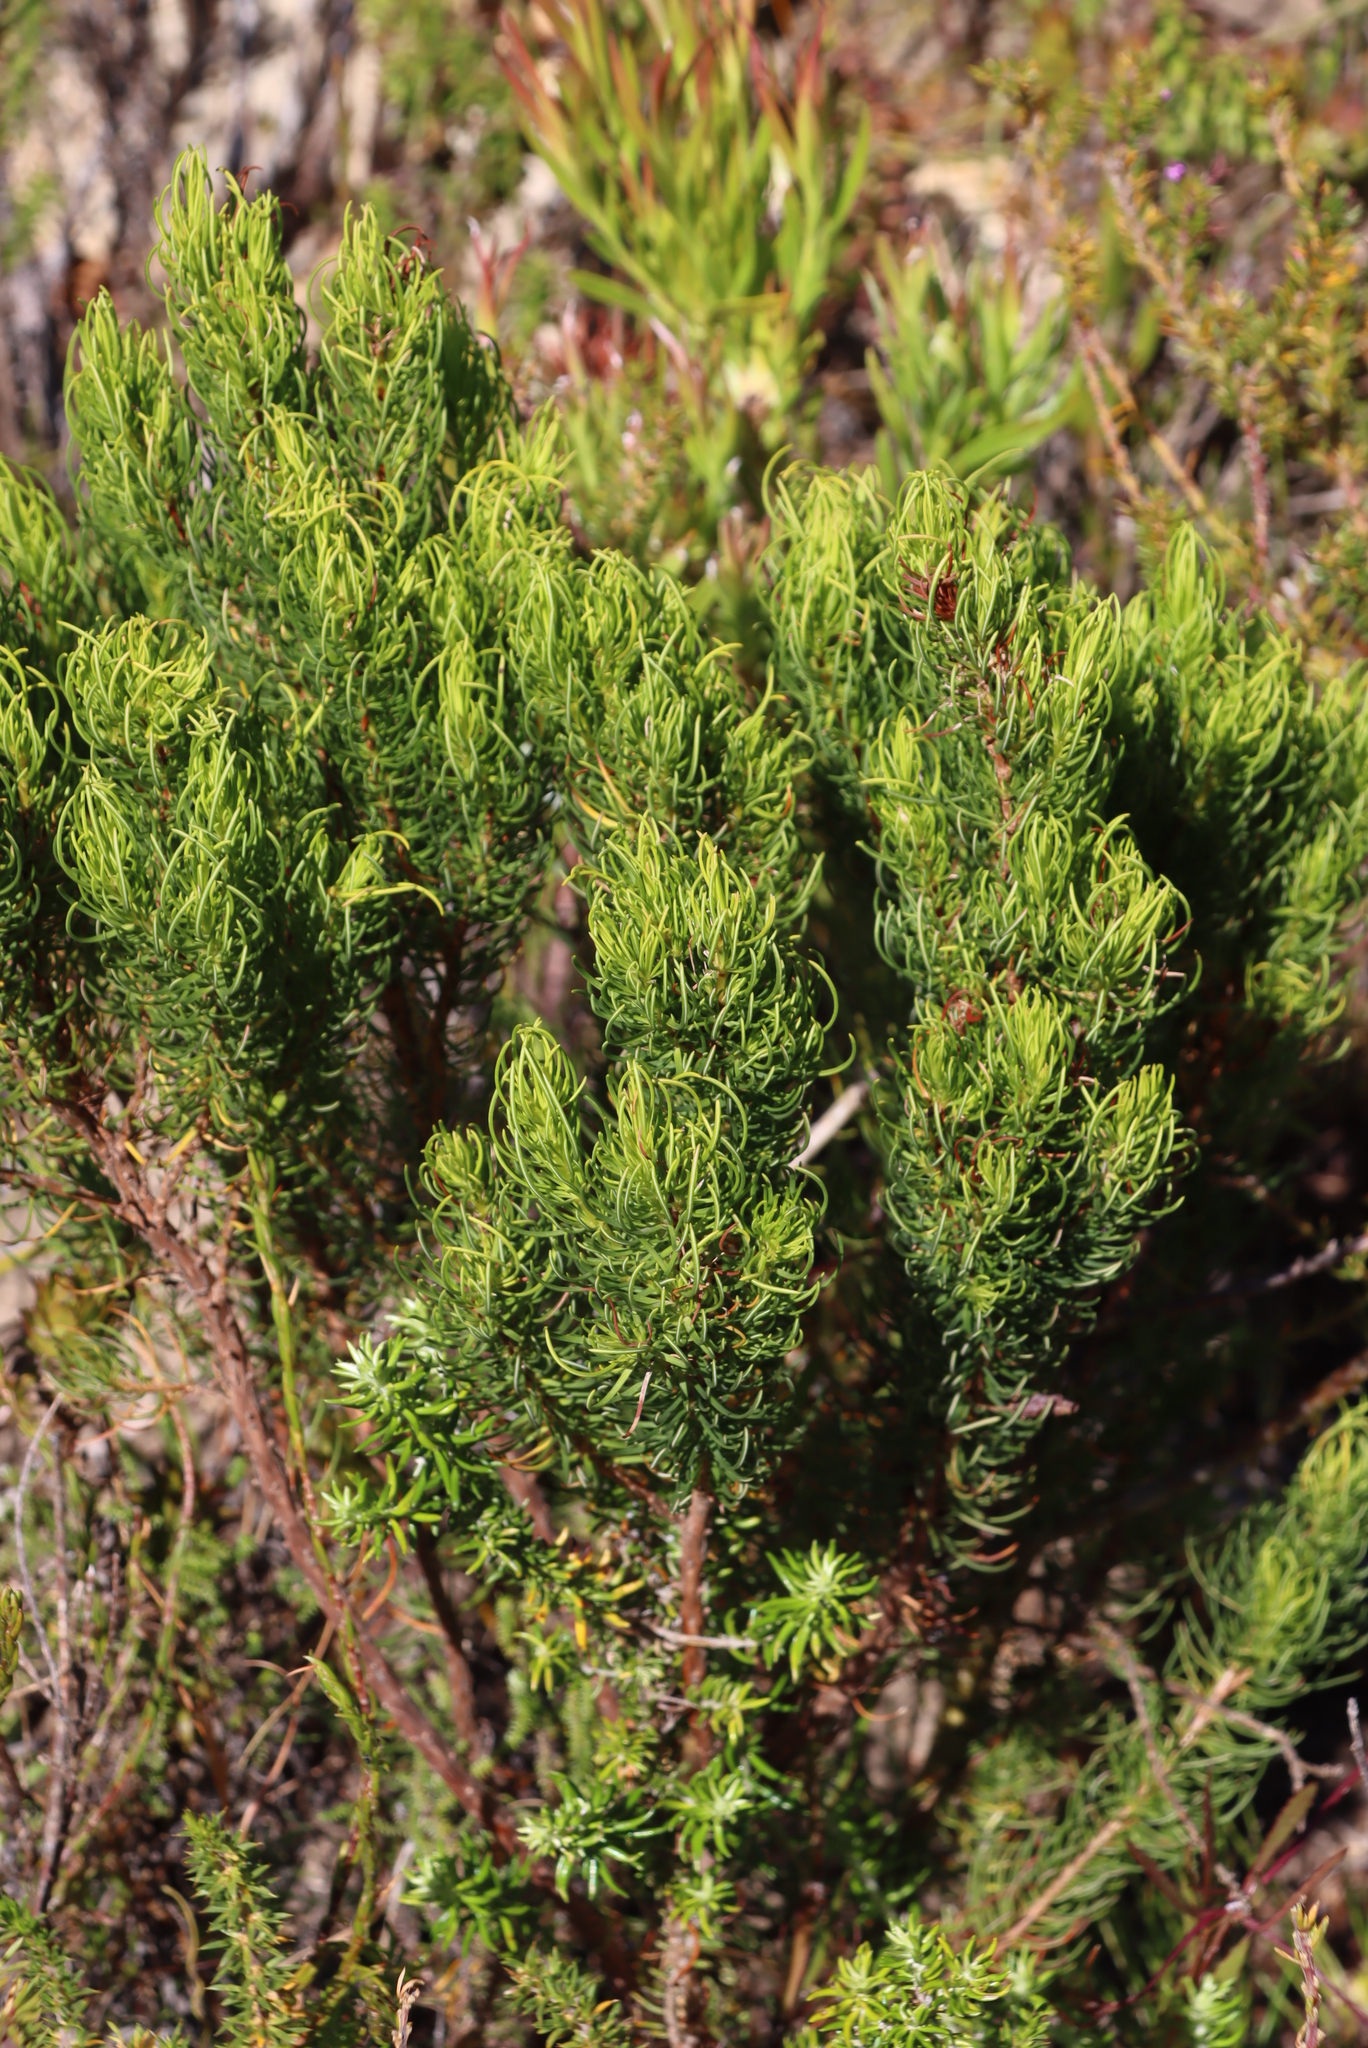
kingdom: Plantae
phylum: Tracheophyta
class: Magnoliopsida
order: Ericales
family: Ericaceae
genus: Erica
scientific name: Erica plukenetii
